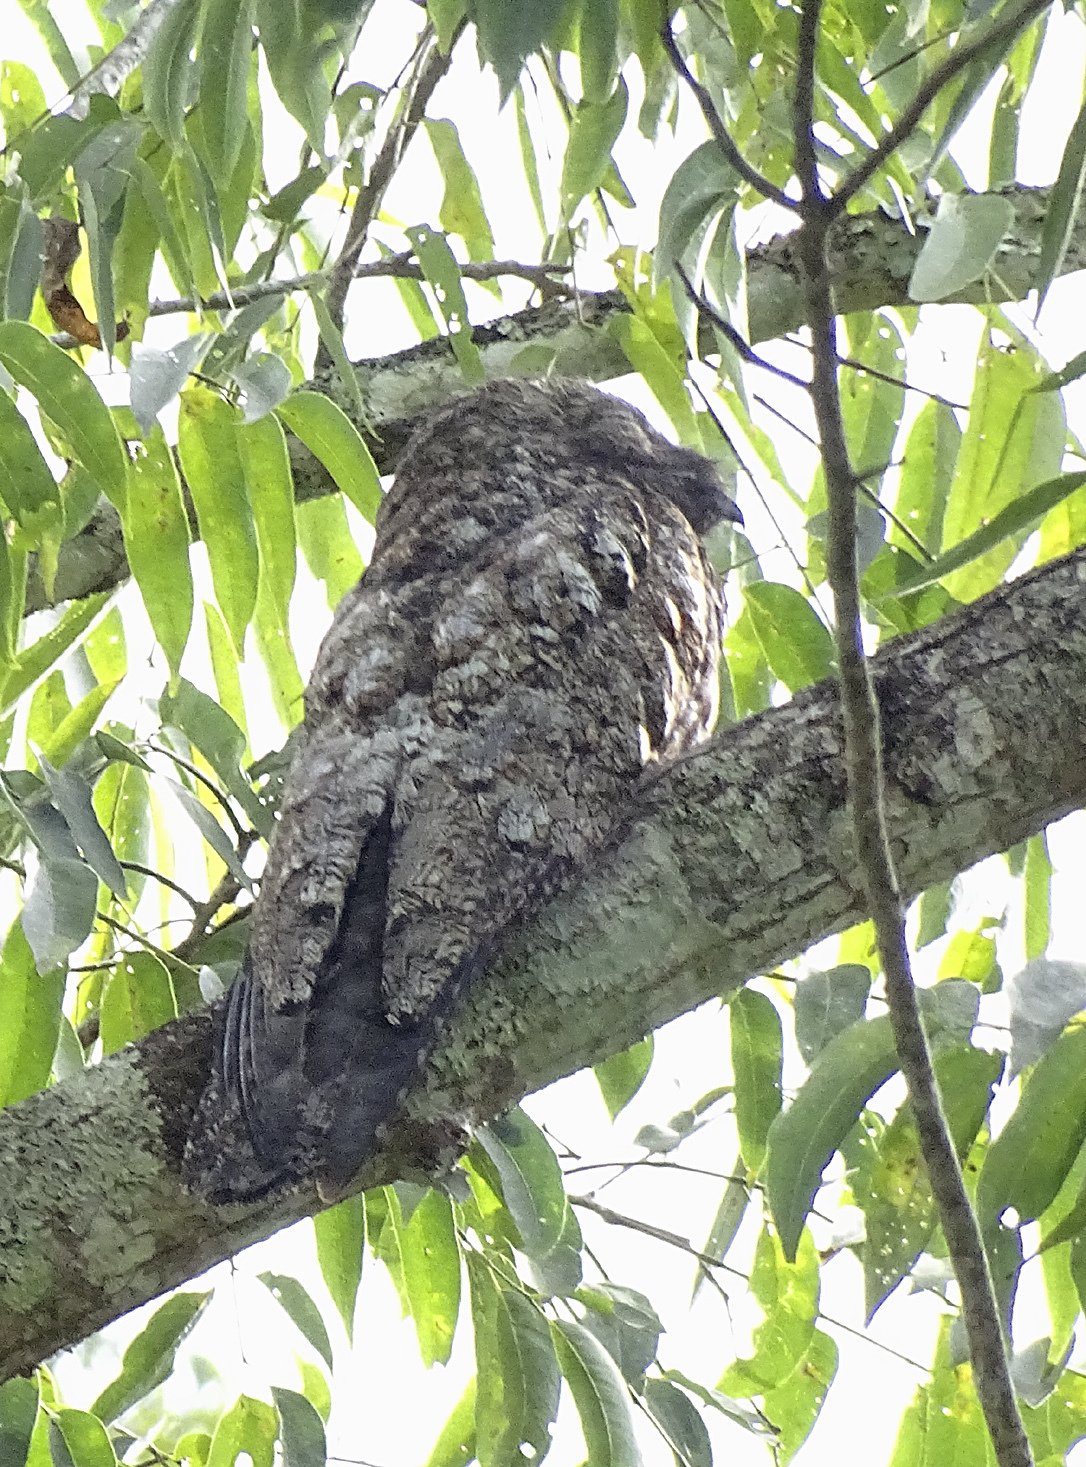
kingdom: Animalia
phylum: Chordata
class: Aves
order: Nyctibiiformes
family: Nyctibiidae
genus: Nyctibius
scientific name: Nyctibius grandis
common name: Great potoo
